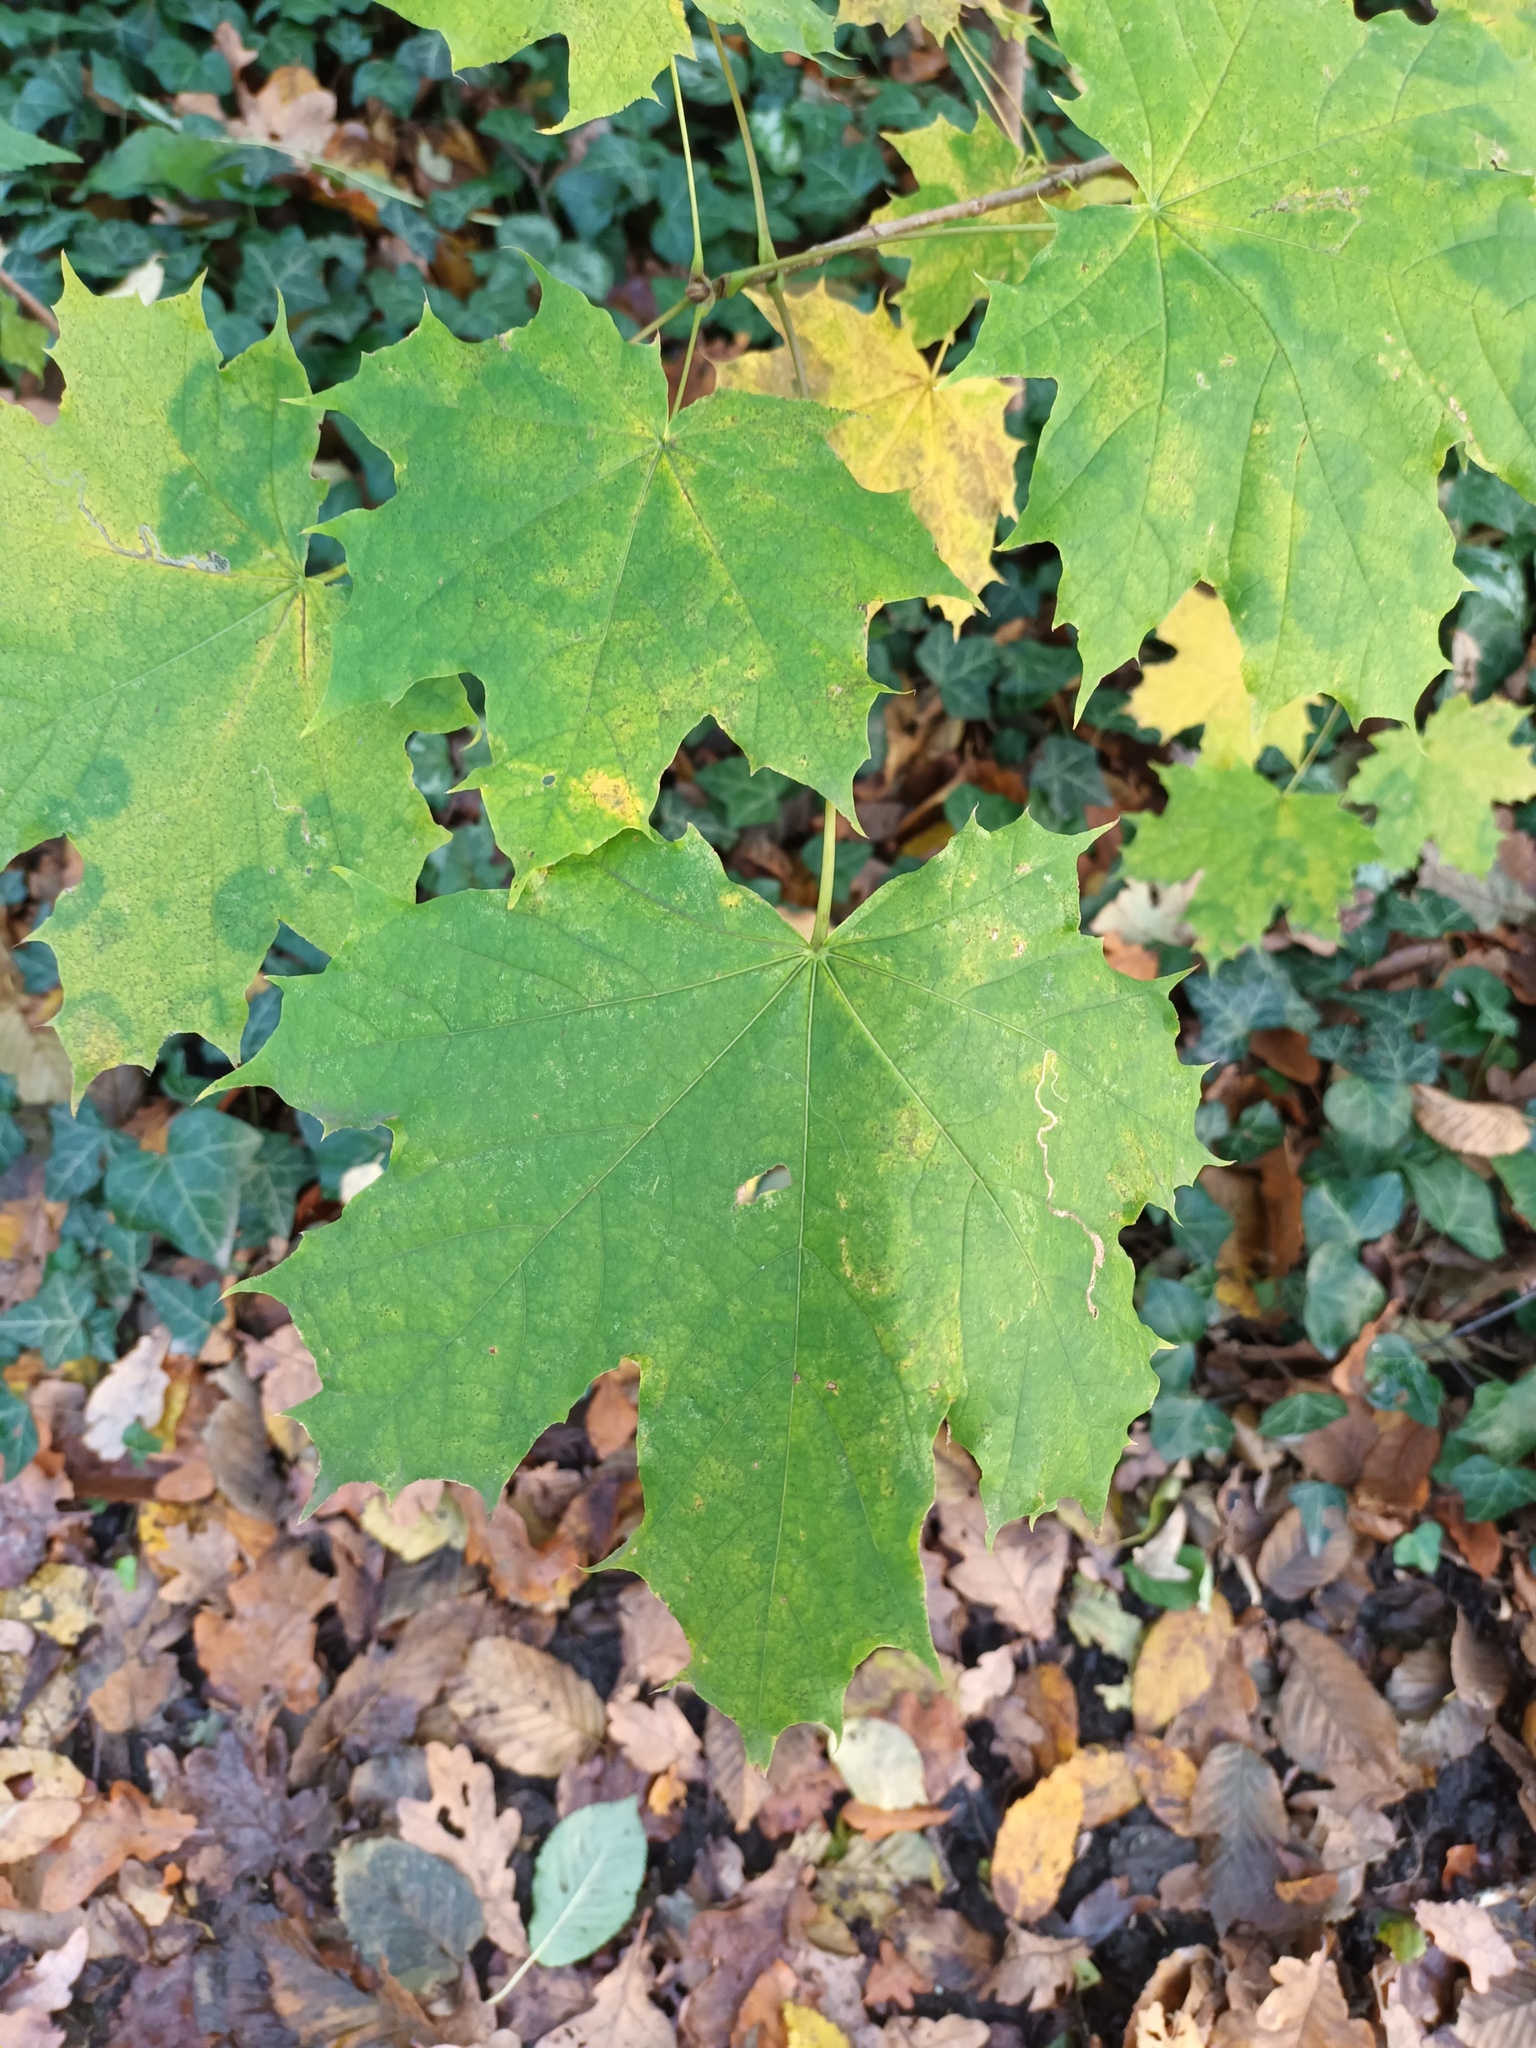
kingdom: Plantae
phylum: Tracheophyta
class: Magnoliopsida
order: Sapindales
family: Sapindaceae
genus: Acer
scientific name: Acer platanoides
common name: Norway maple
